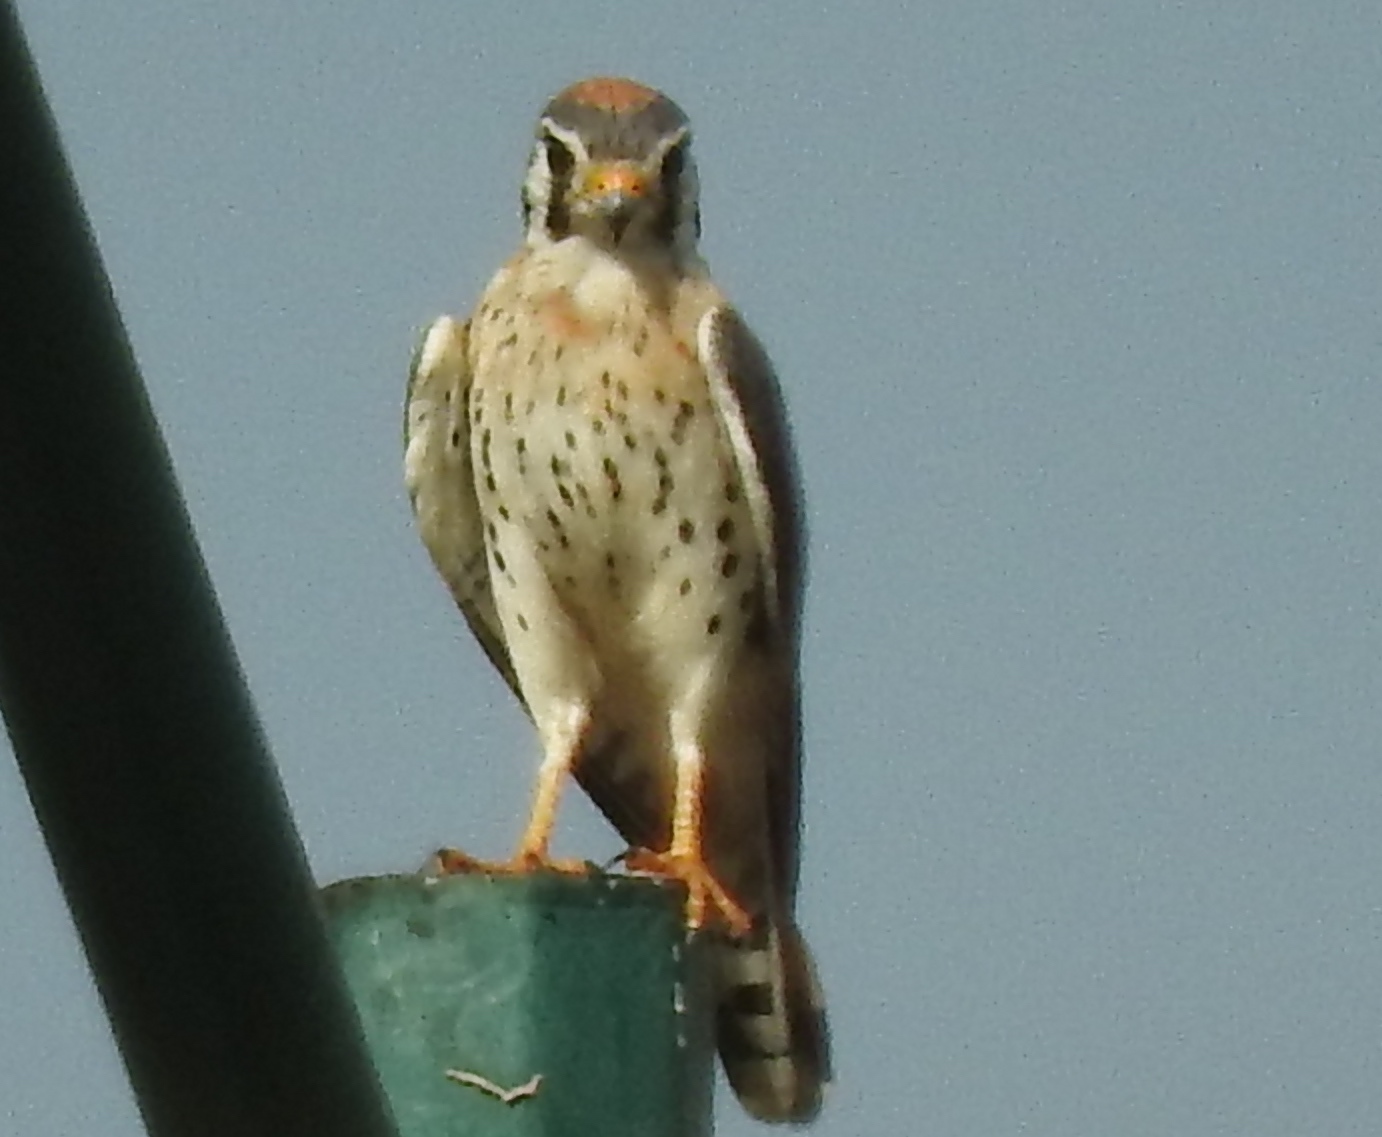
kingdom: Animalia
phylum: Chordata
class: Aves
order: Falconiformes
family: Falconidae
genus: Falco
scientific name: Falco sparverius
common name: American kestrel
